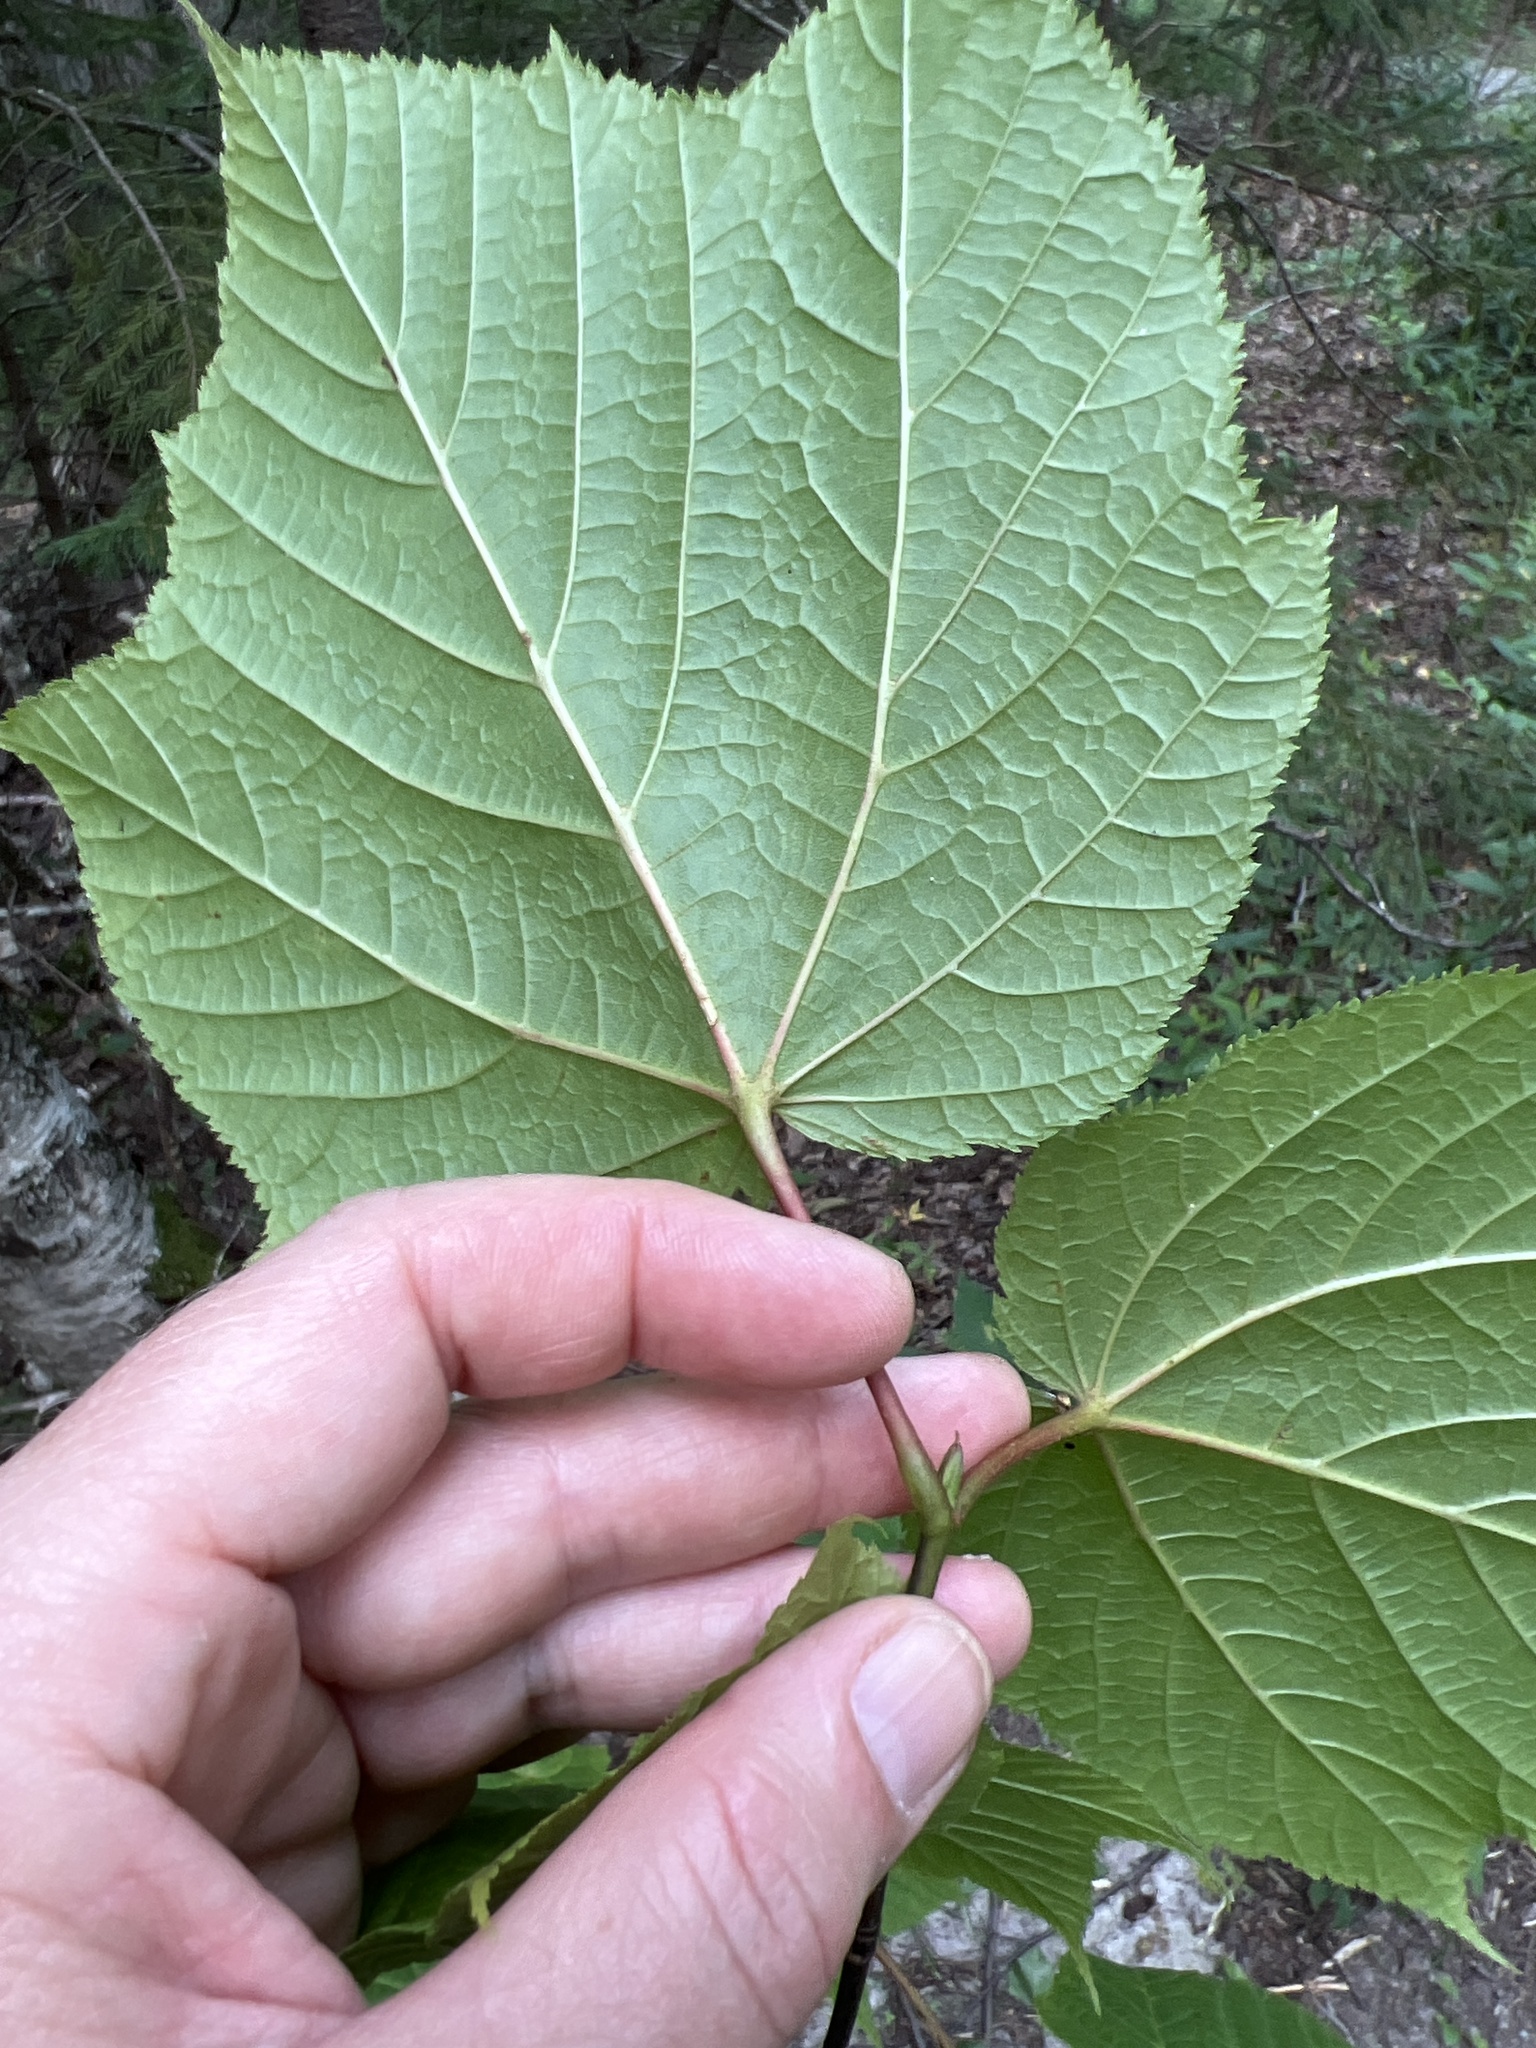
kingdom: Plantae
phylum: Tracheophyta
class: Magnoliopsida
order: Sapindales
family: Sapindaceae
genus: Acer
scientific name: Acer pensylvanicum
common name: Moosewood
